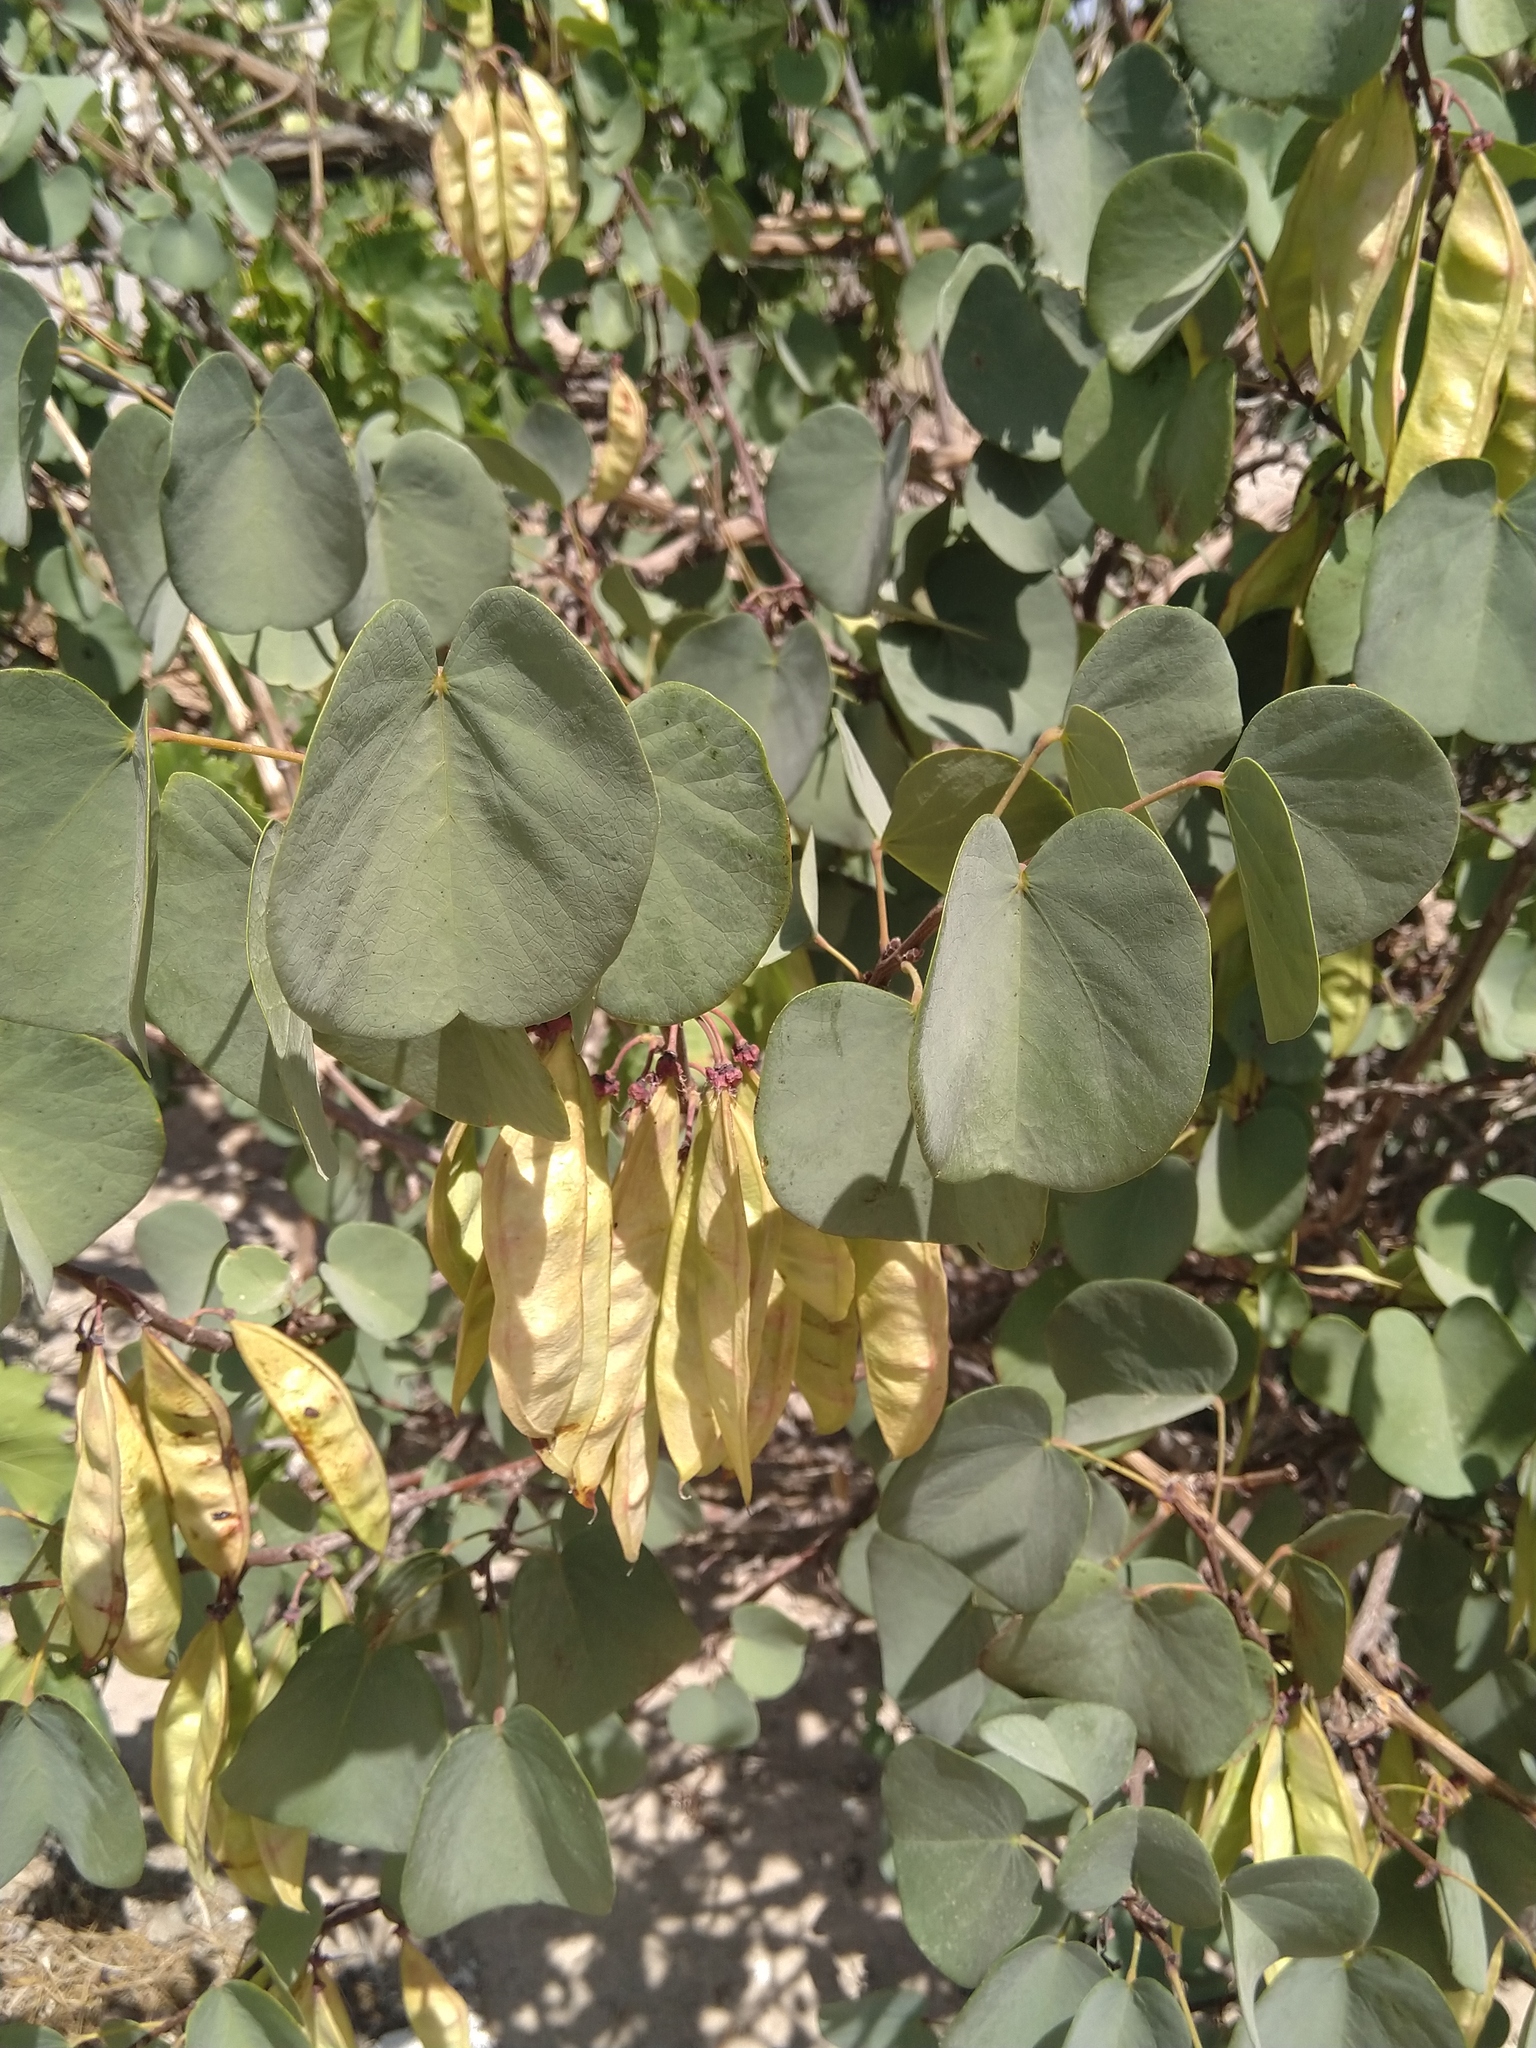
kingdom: Plantae
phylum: Tracheophyta
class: Magnoliopsida
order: Fabales
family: Fabaceae
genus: Cercis
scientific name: Cercis siliquastrum
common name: Judas tree
